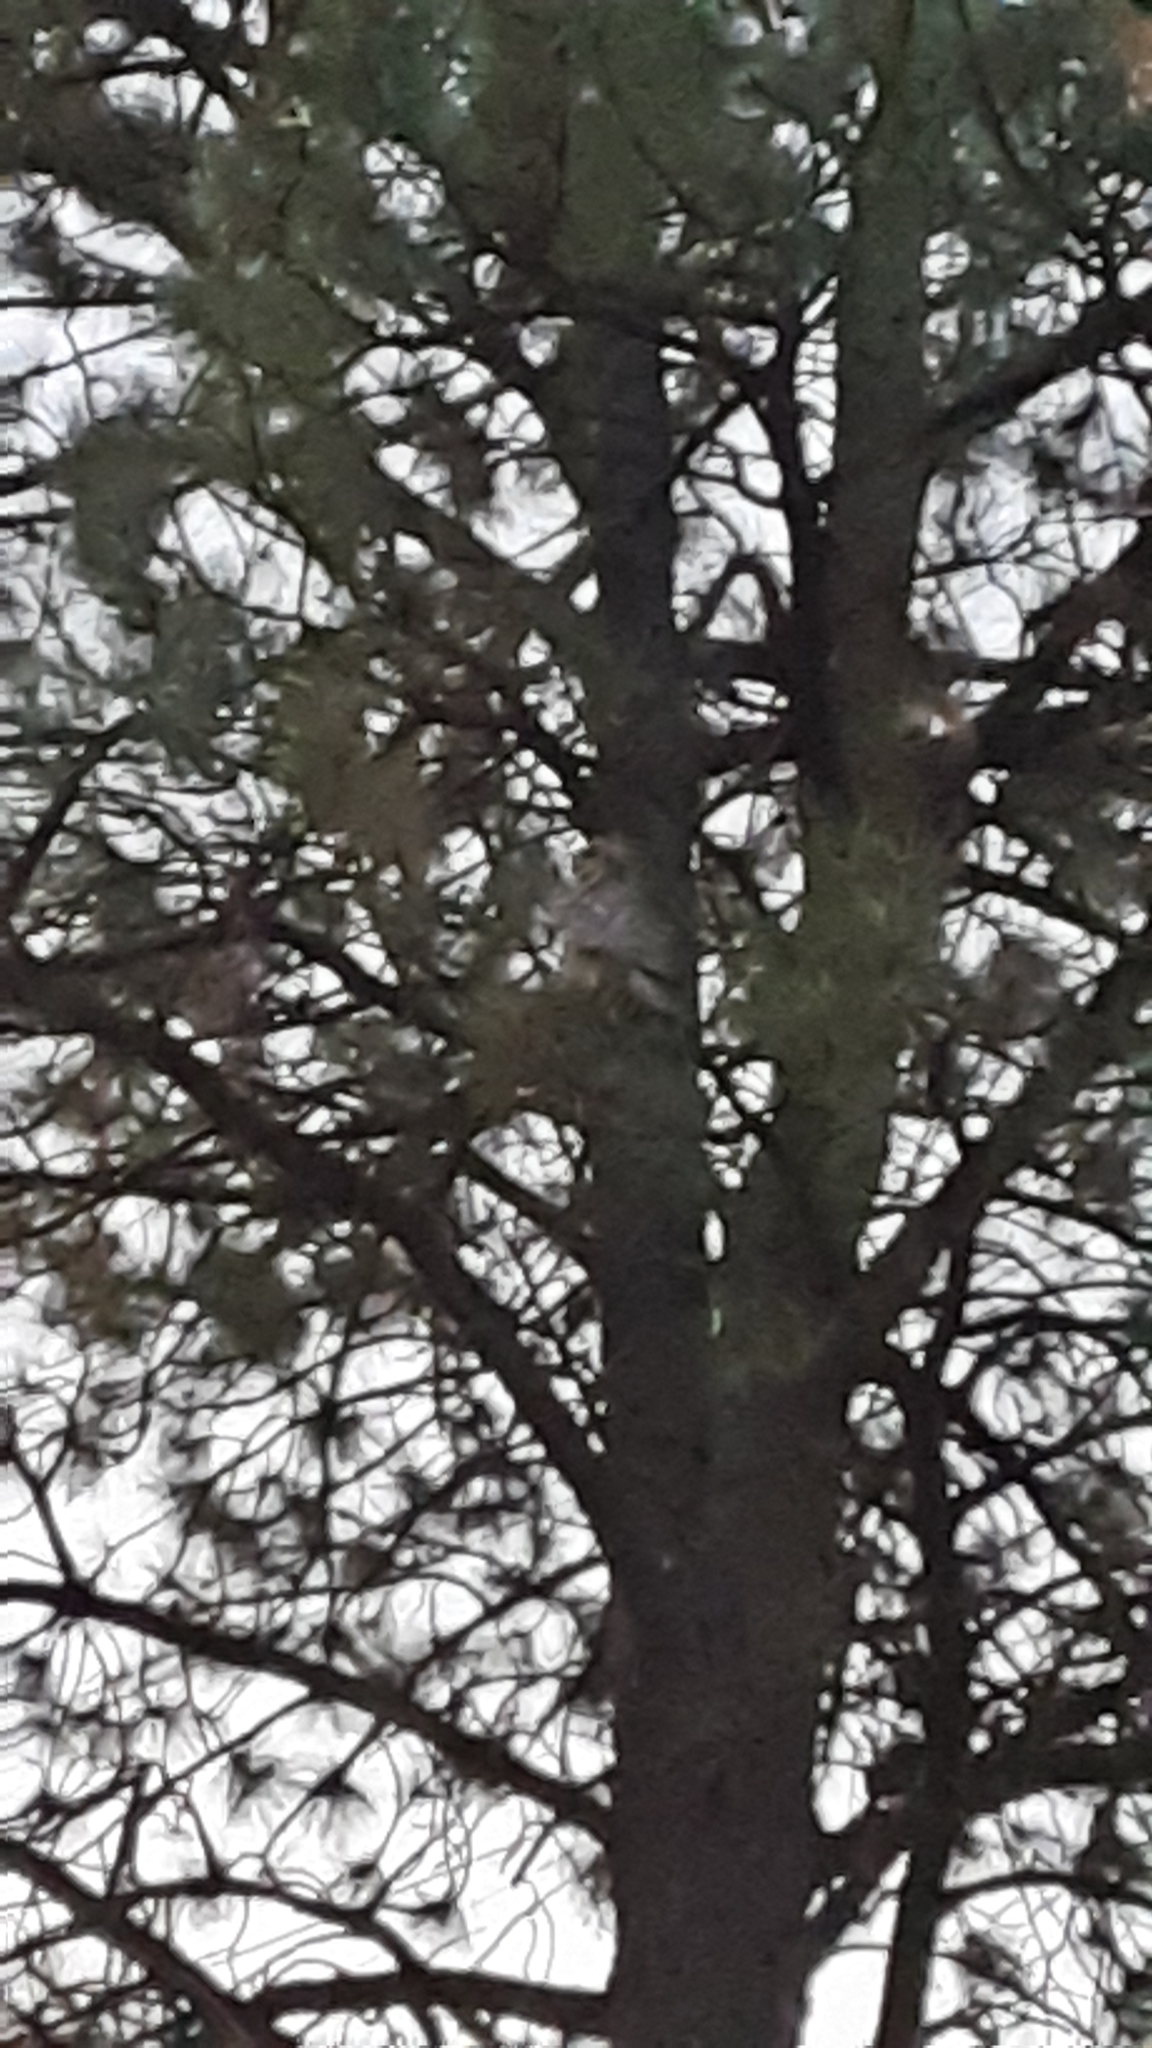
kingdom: Animalia
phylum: Chordata
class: Aves
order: Strigiformes
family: Strigidae
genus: Bubo
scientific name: Bubo virginianus
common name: Great horned owl
